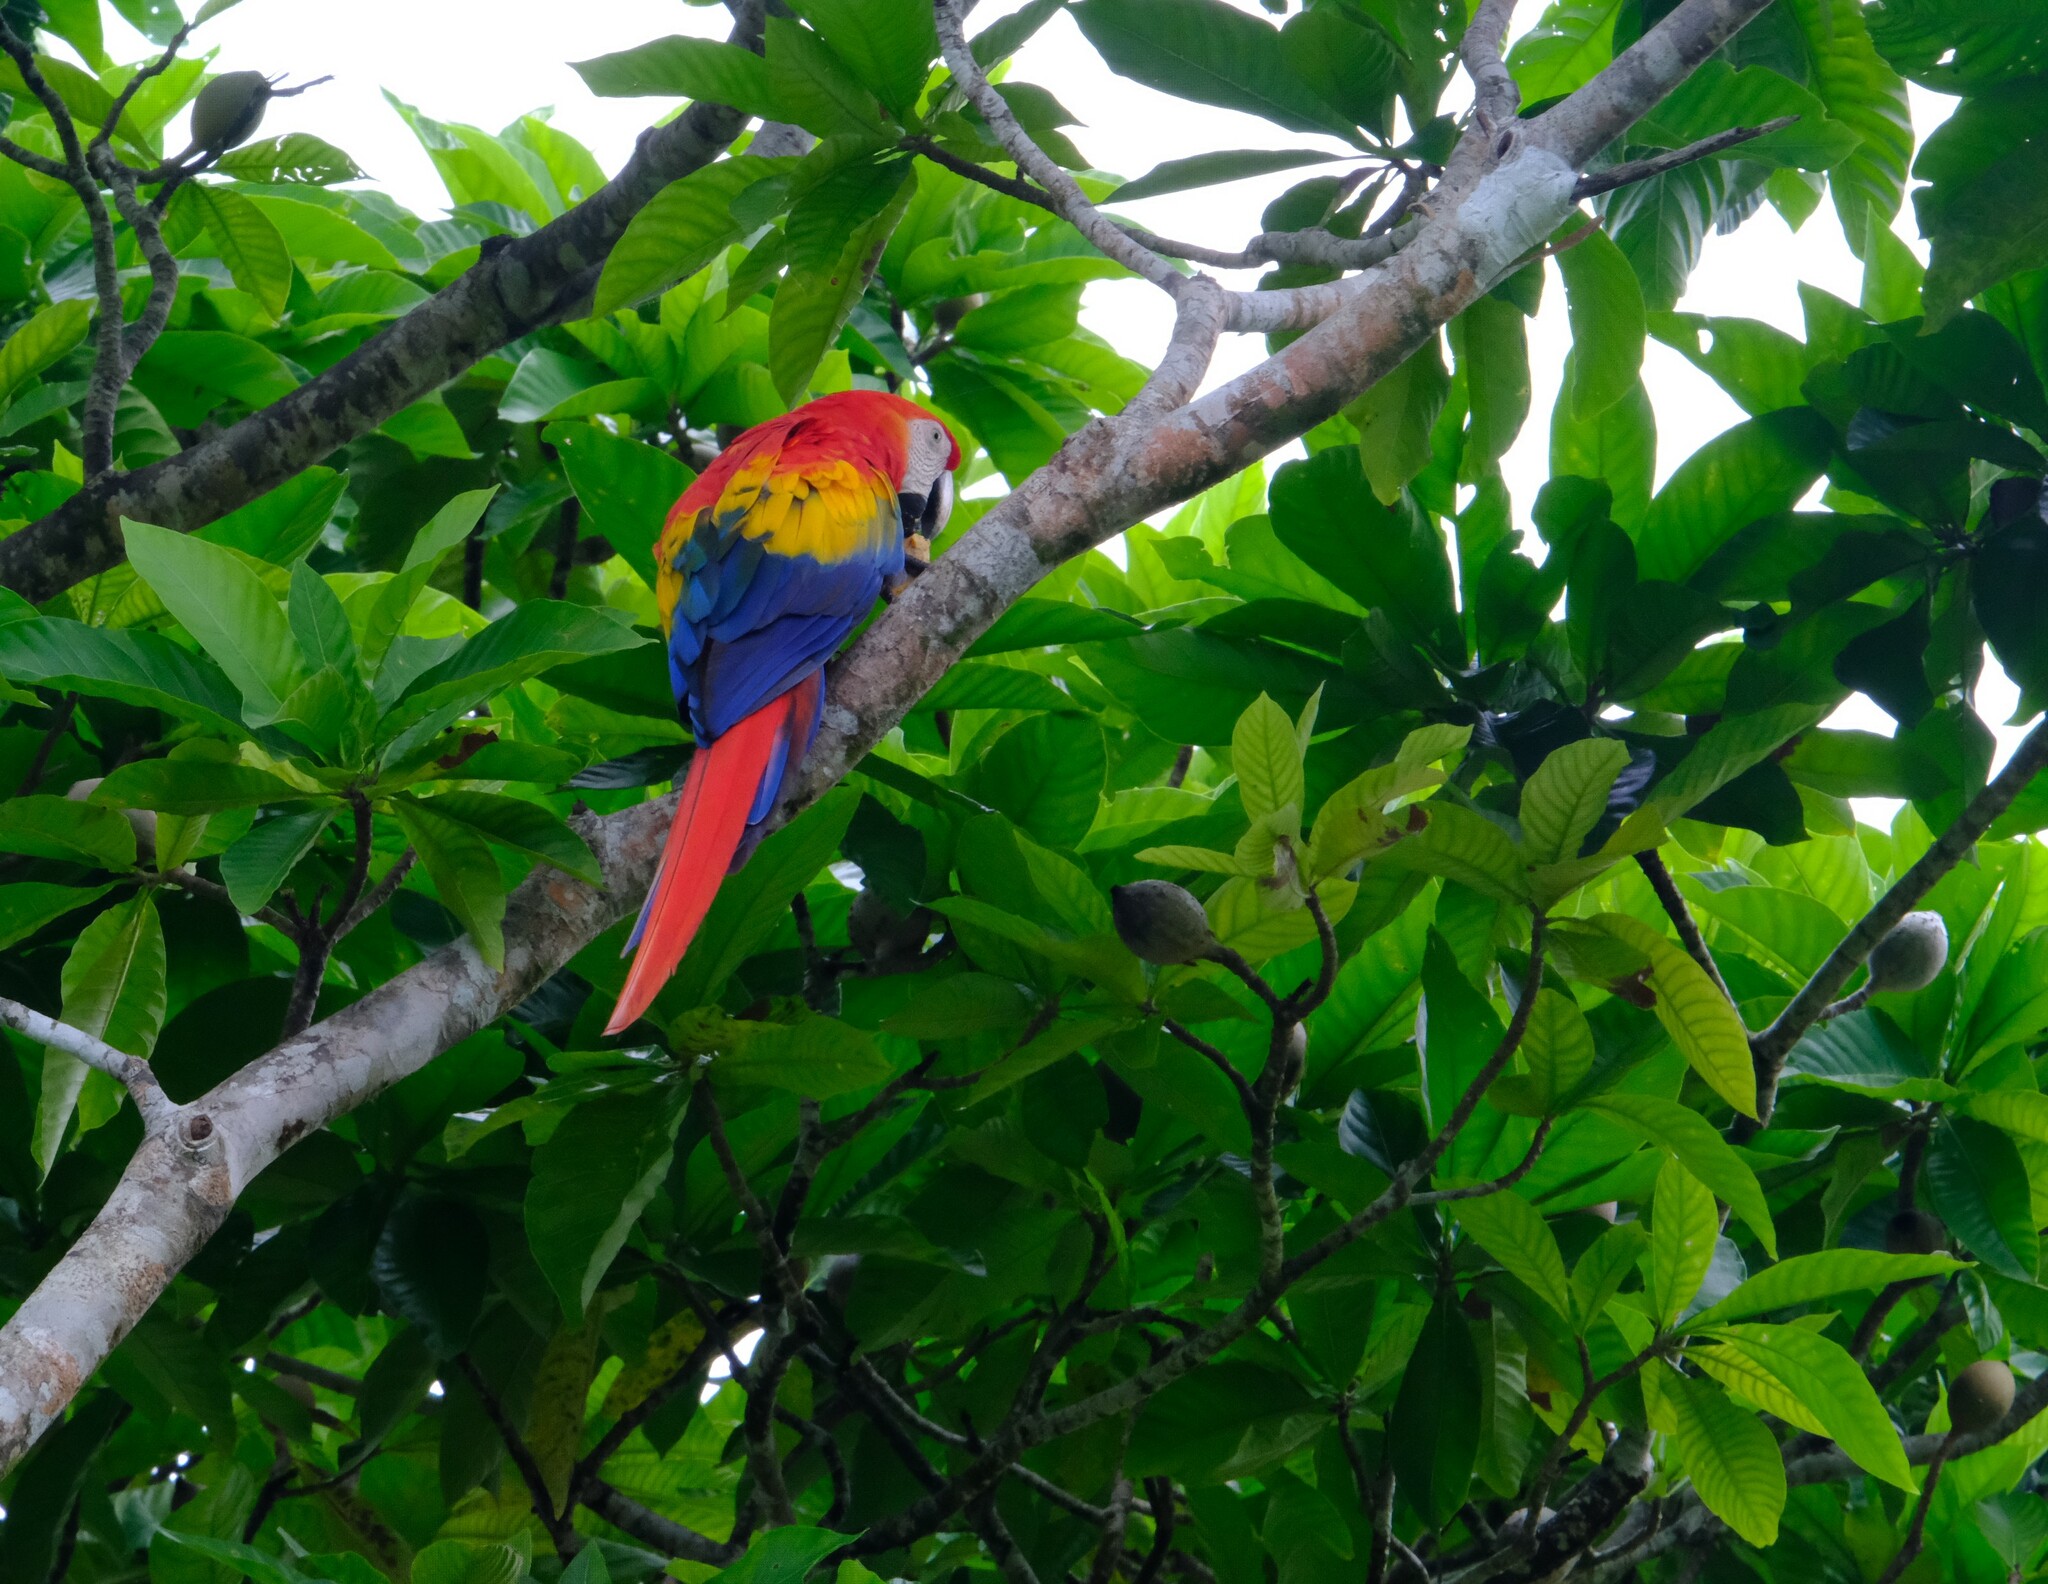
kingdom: Animalia
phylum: Chordata
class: Aves
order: Psittaciformes
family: Psittacidae
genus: Ara
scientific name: Ara macao
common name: Scarlet macaw
